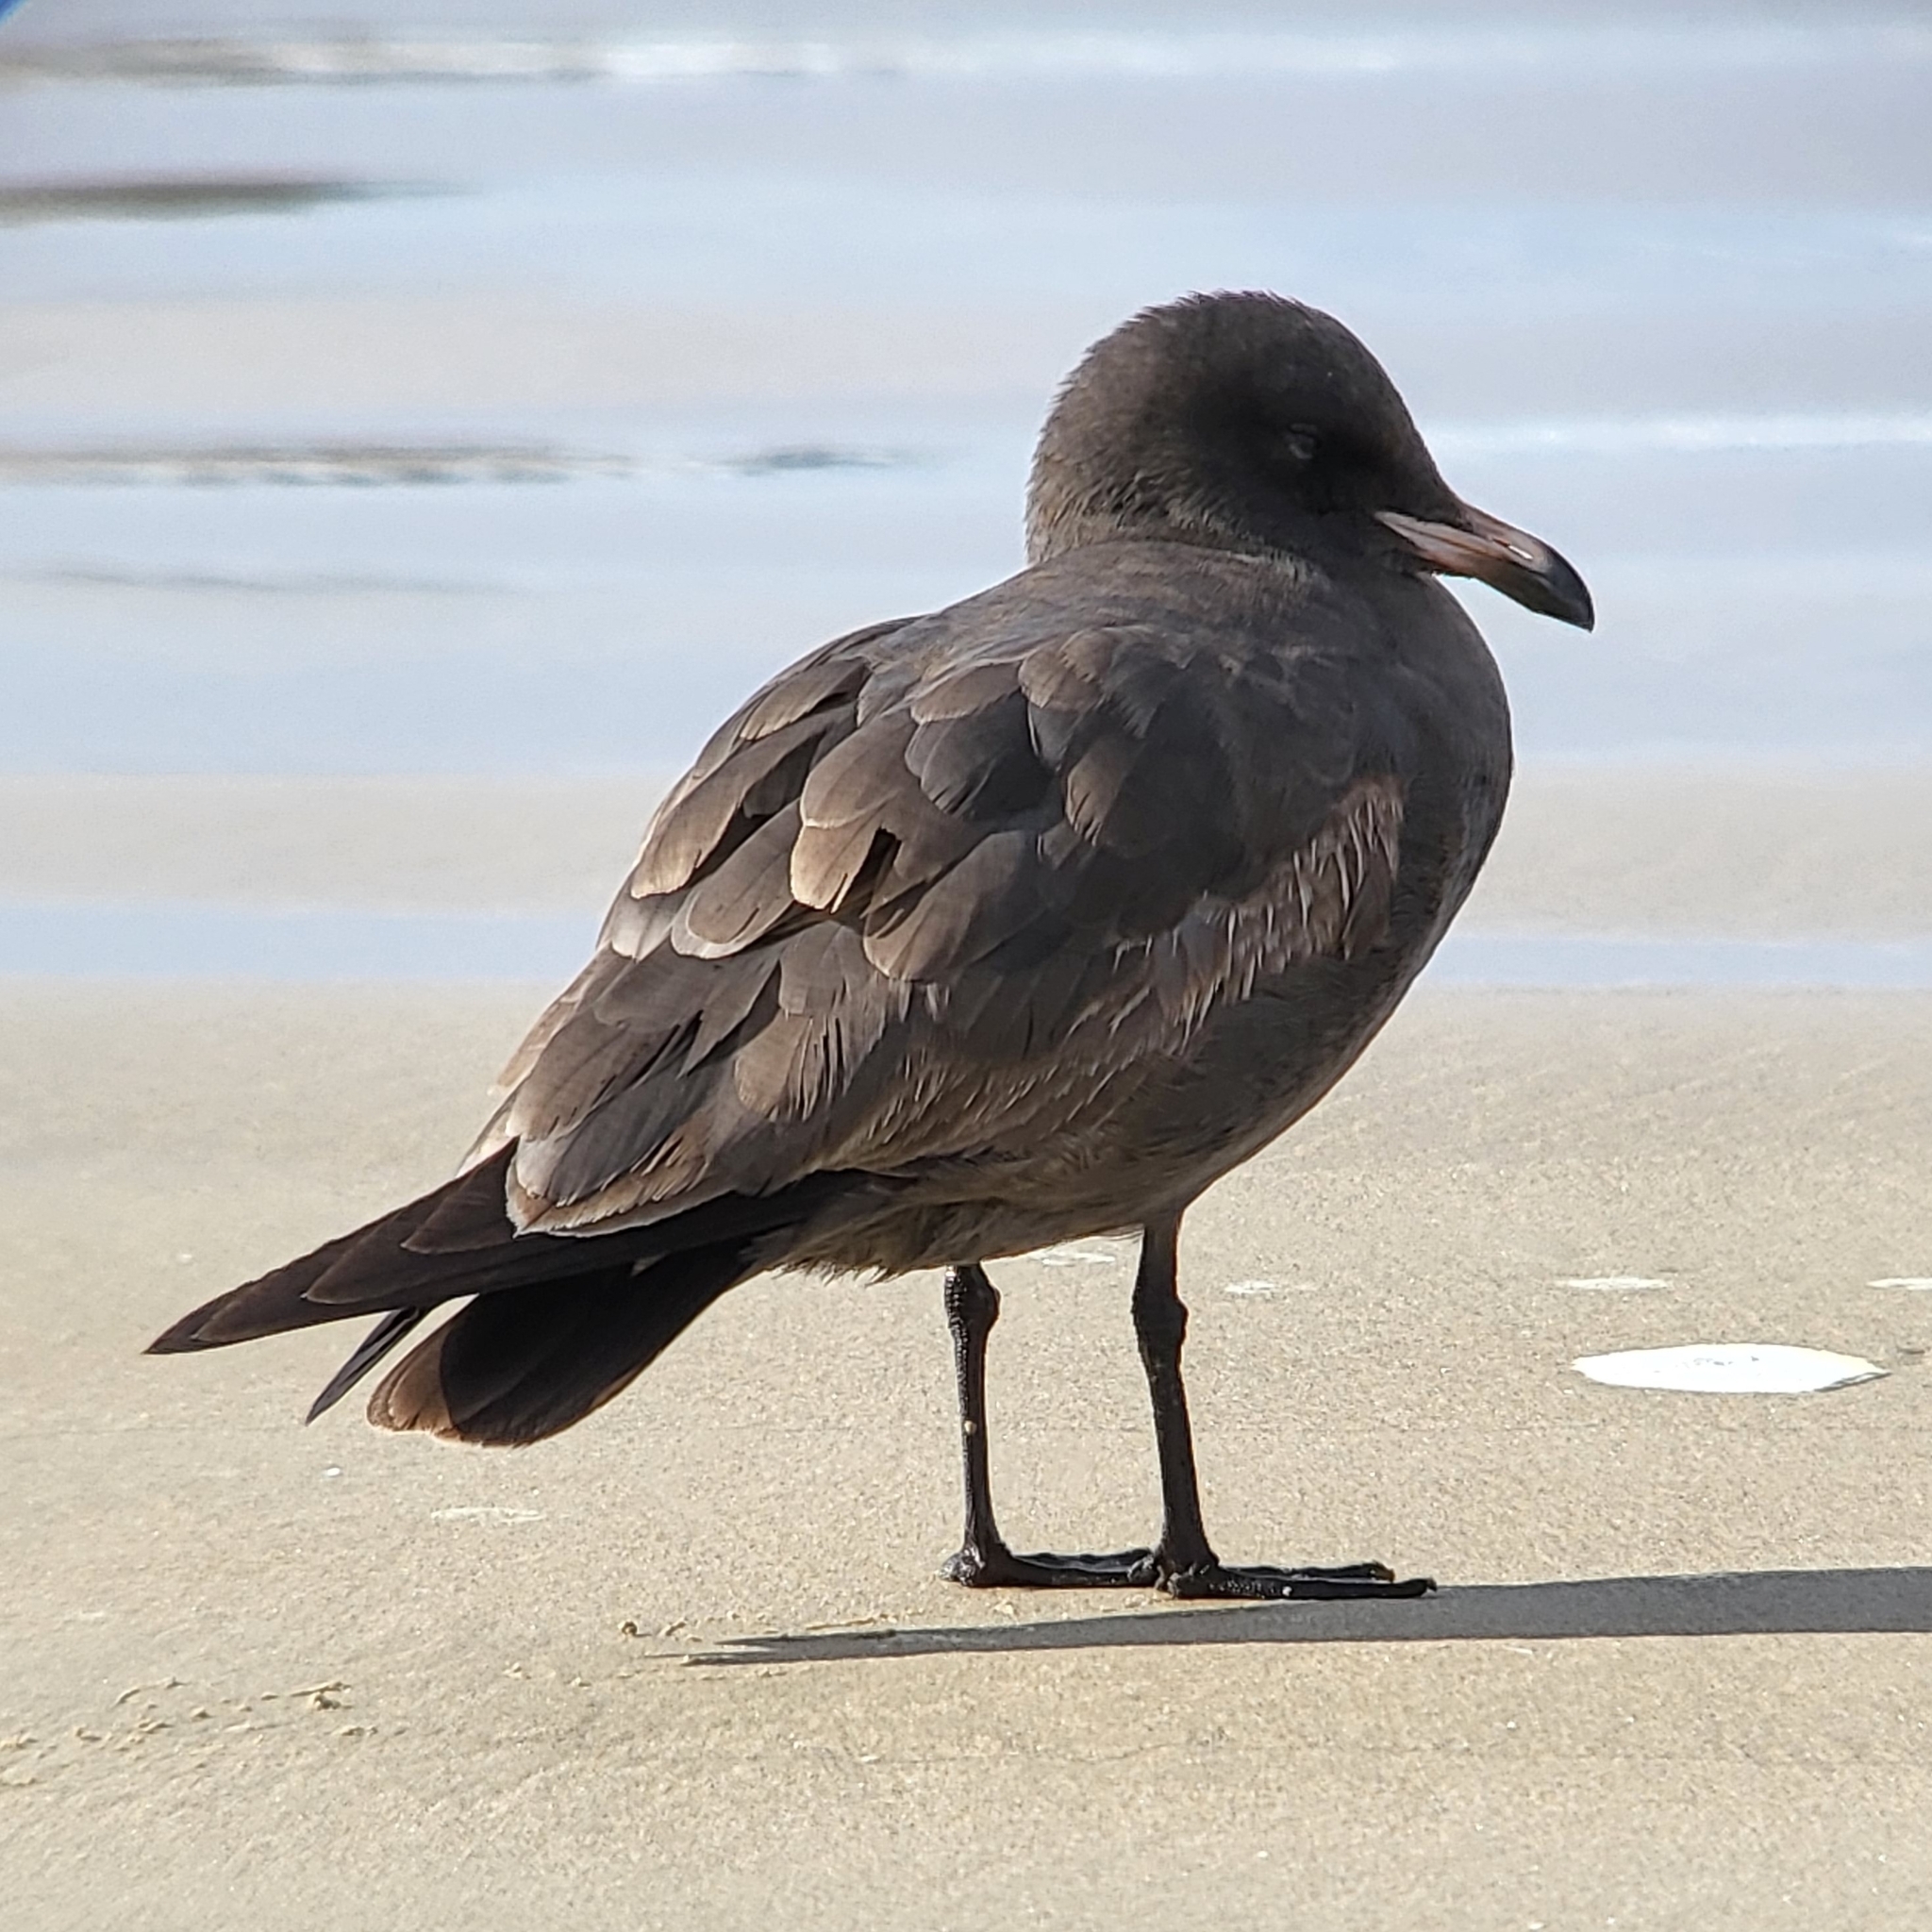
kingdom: Animalia
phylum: Chordata
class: Aves
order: Charadriiformes
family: Laridae
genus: Larus
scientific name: Larus heermanni
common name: Heermann's gull
